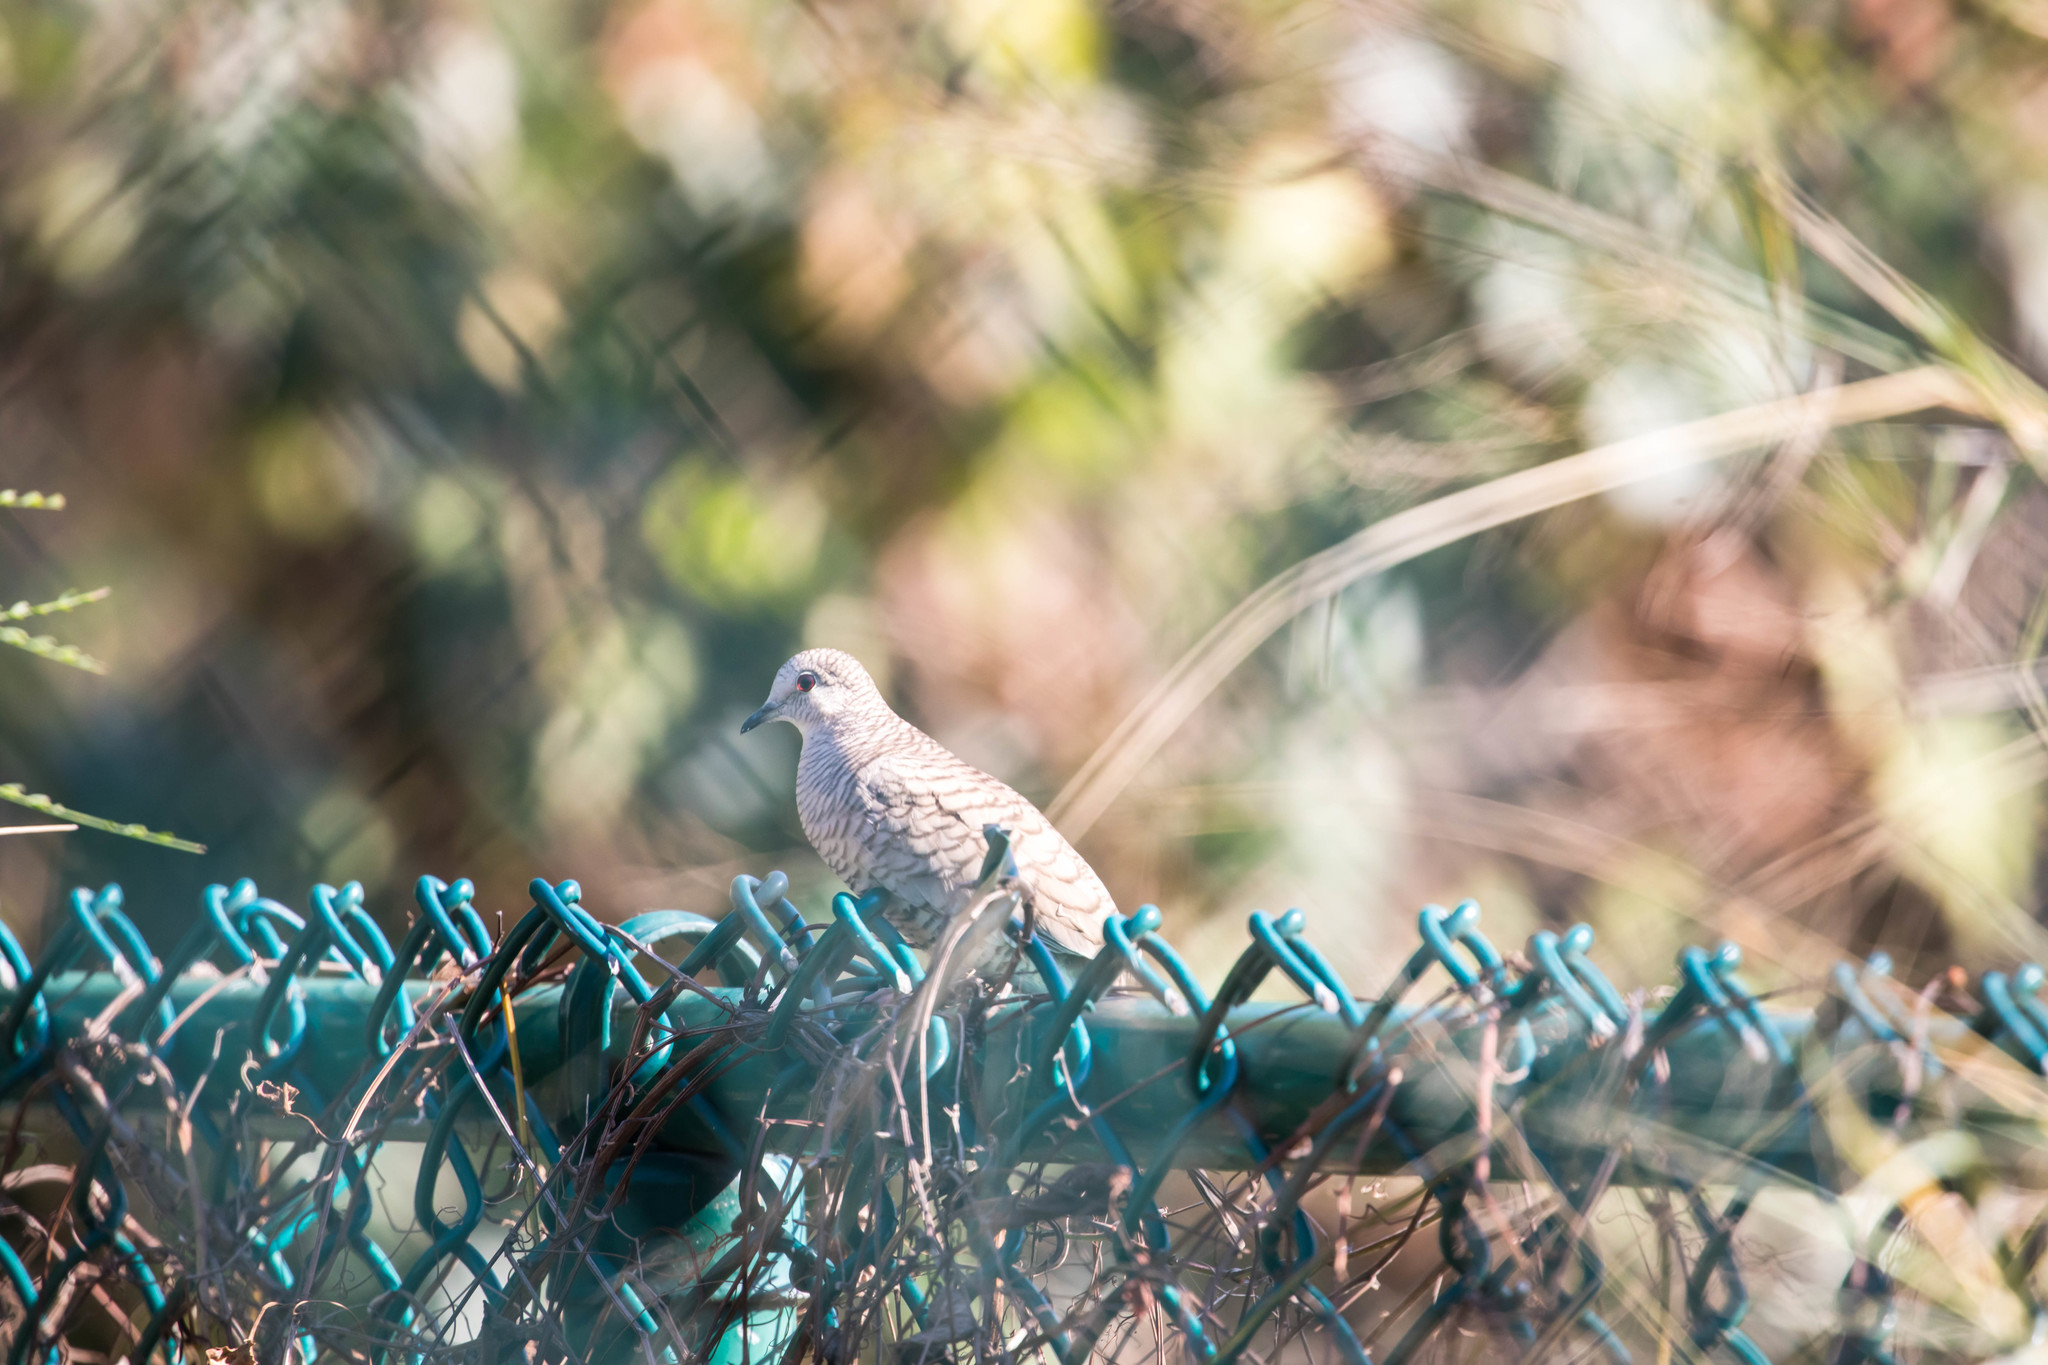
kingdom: Animalia
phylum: Chordata
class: Aves
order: Columbiformes
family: Columbidae
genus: Columbina
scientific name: Columbina inca
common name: Inca dove
